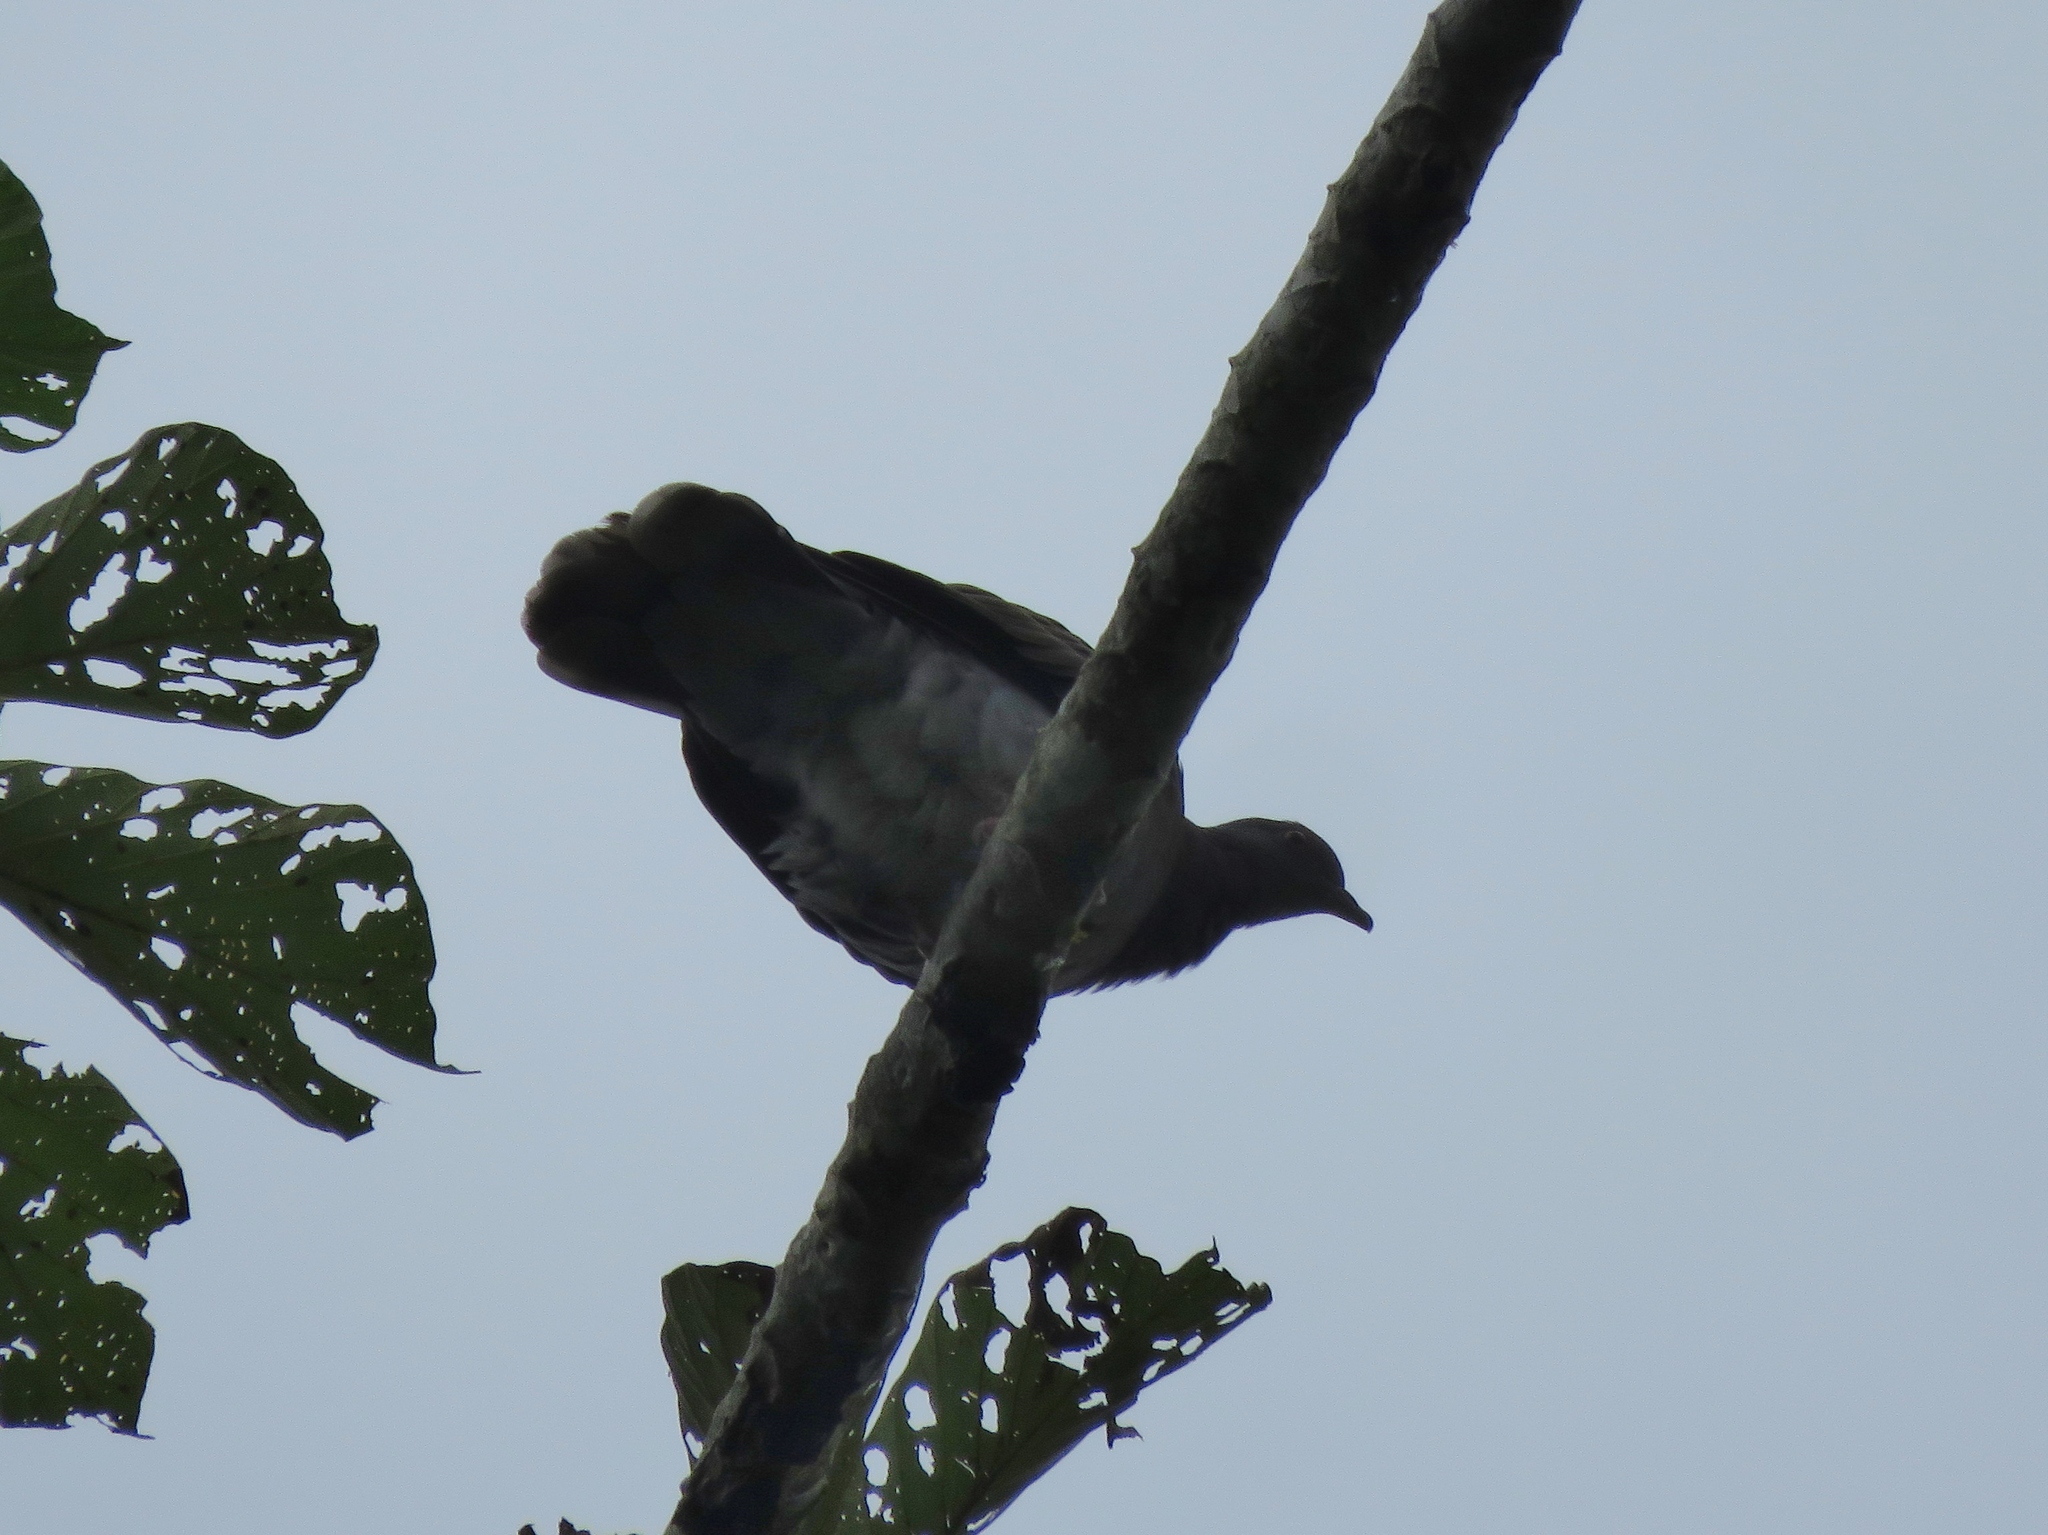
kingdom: Animalia
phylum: Chordata
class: Aves
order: Columbiformes
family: Columbidae
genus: Patagioenas
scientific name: Patagioenas cayennensis
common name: Pale-vented pigeon
